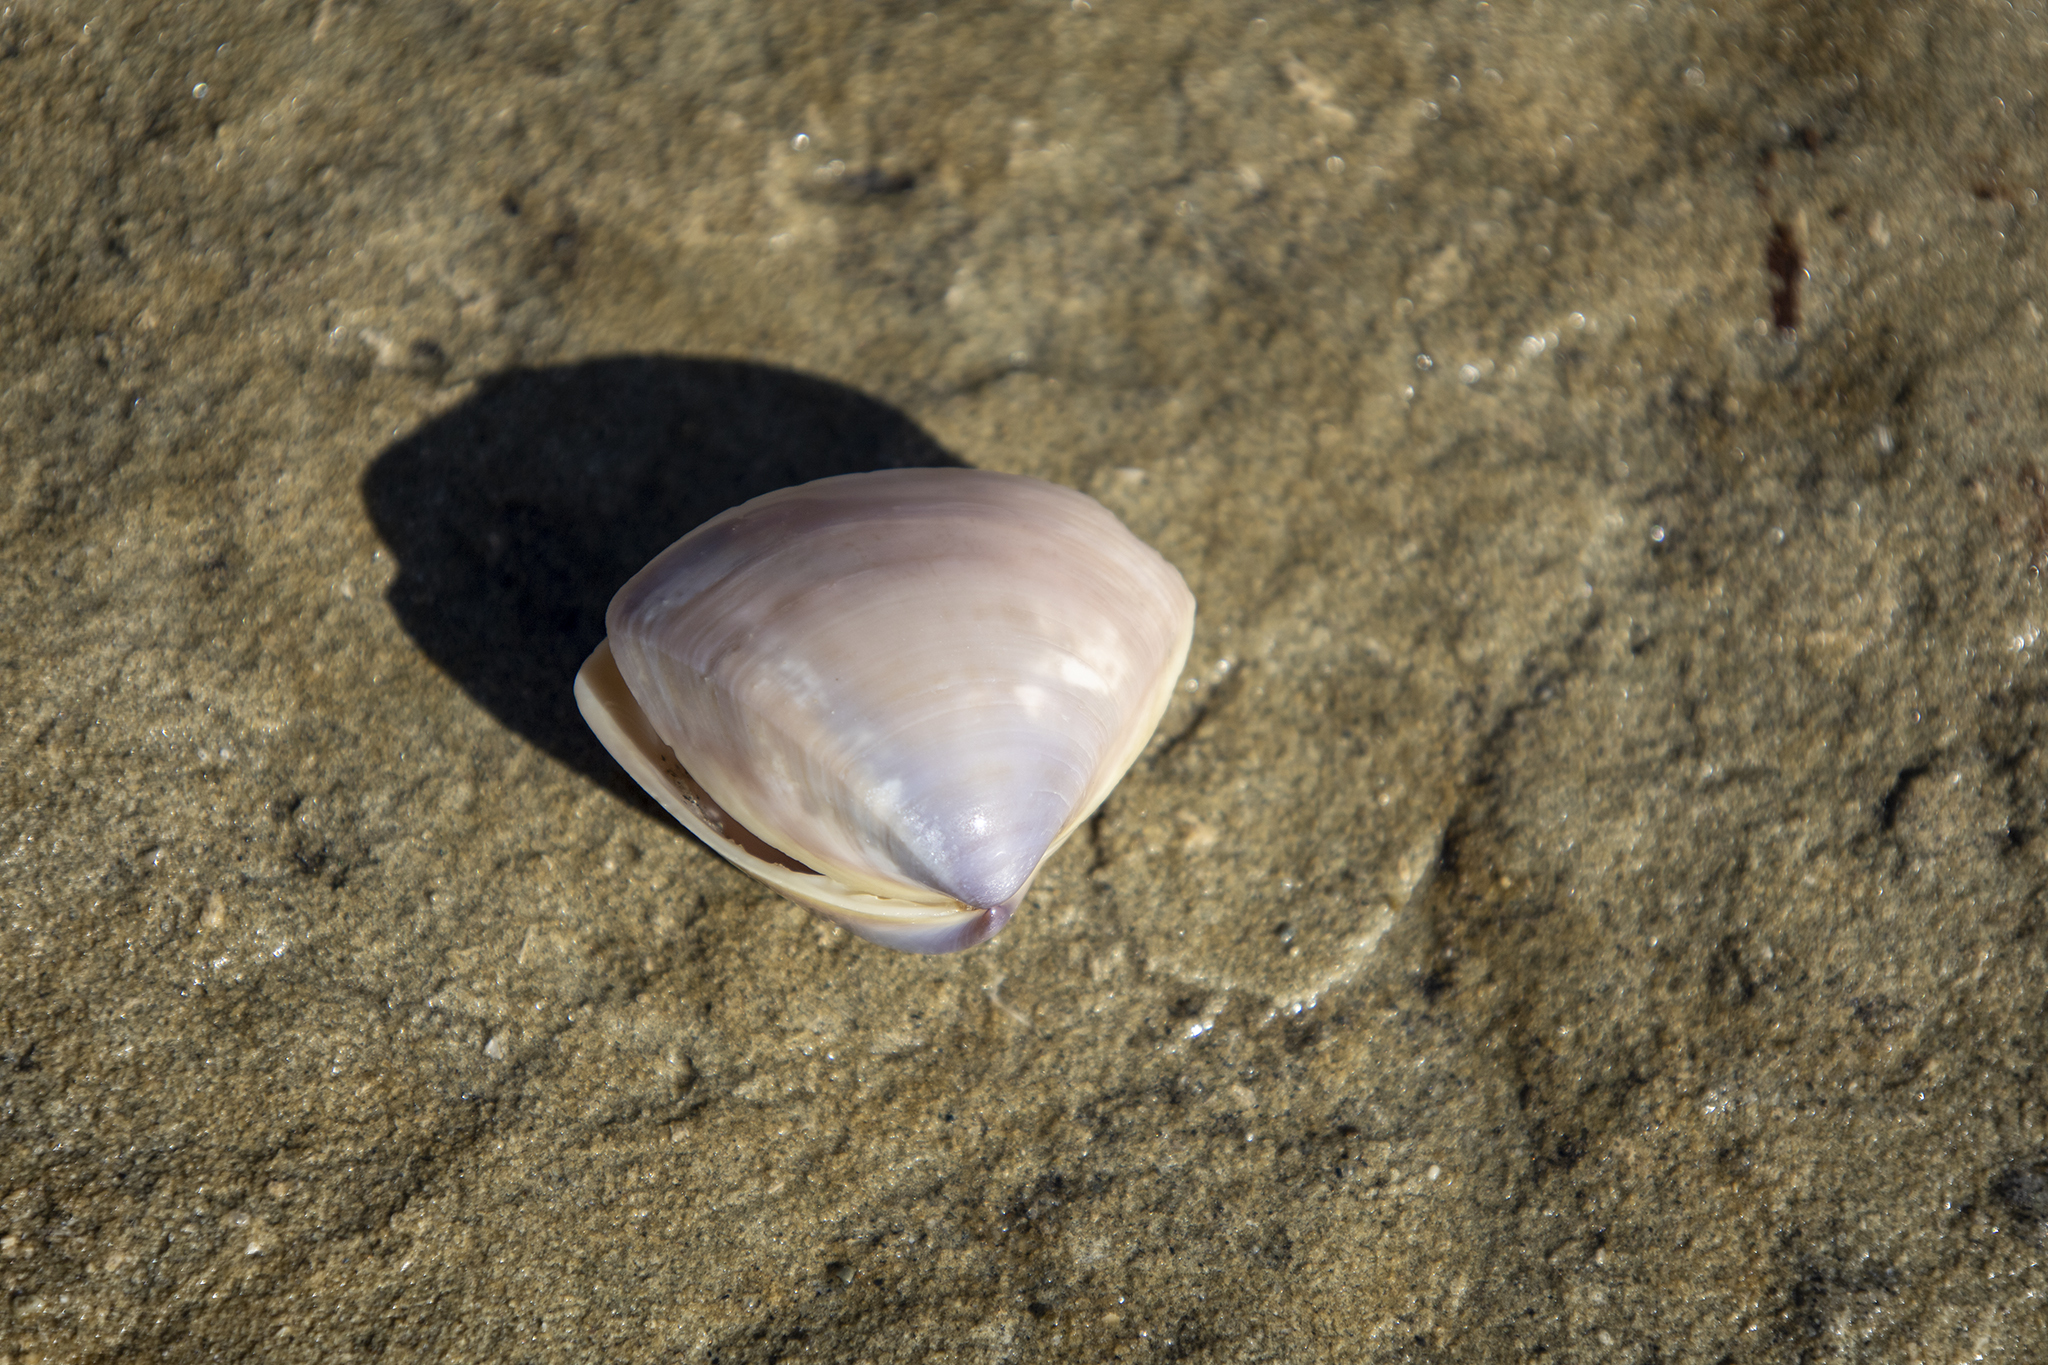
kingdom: Animalia
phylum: Mollusca
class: Bivalvia
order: Venerida
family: Mactridae
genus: Crassula
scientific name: Crassula aequilatera
